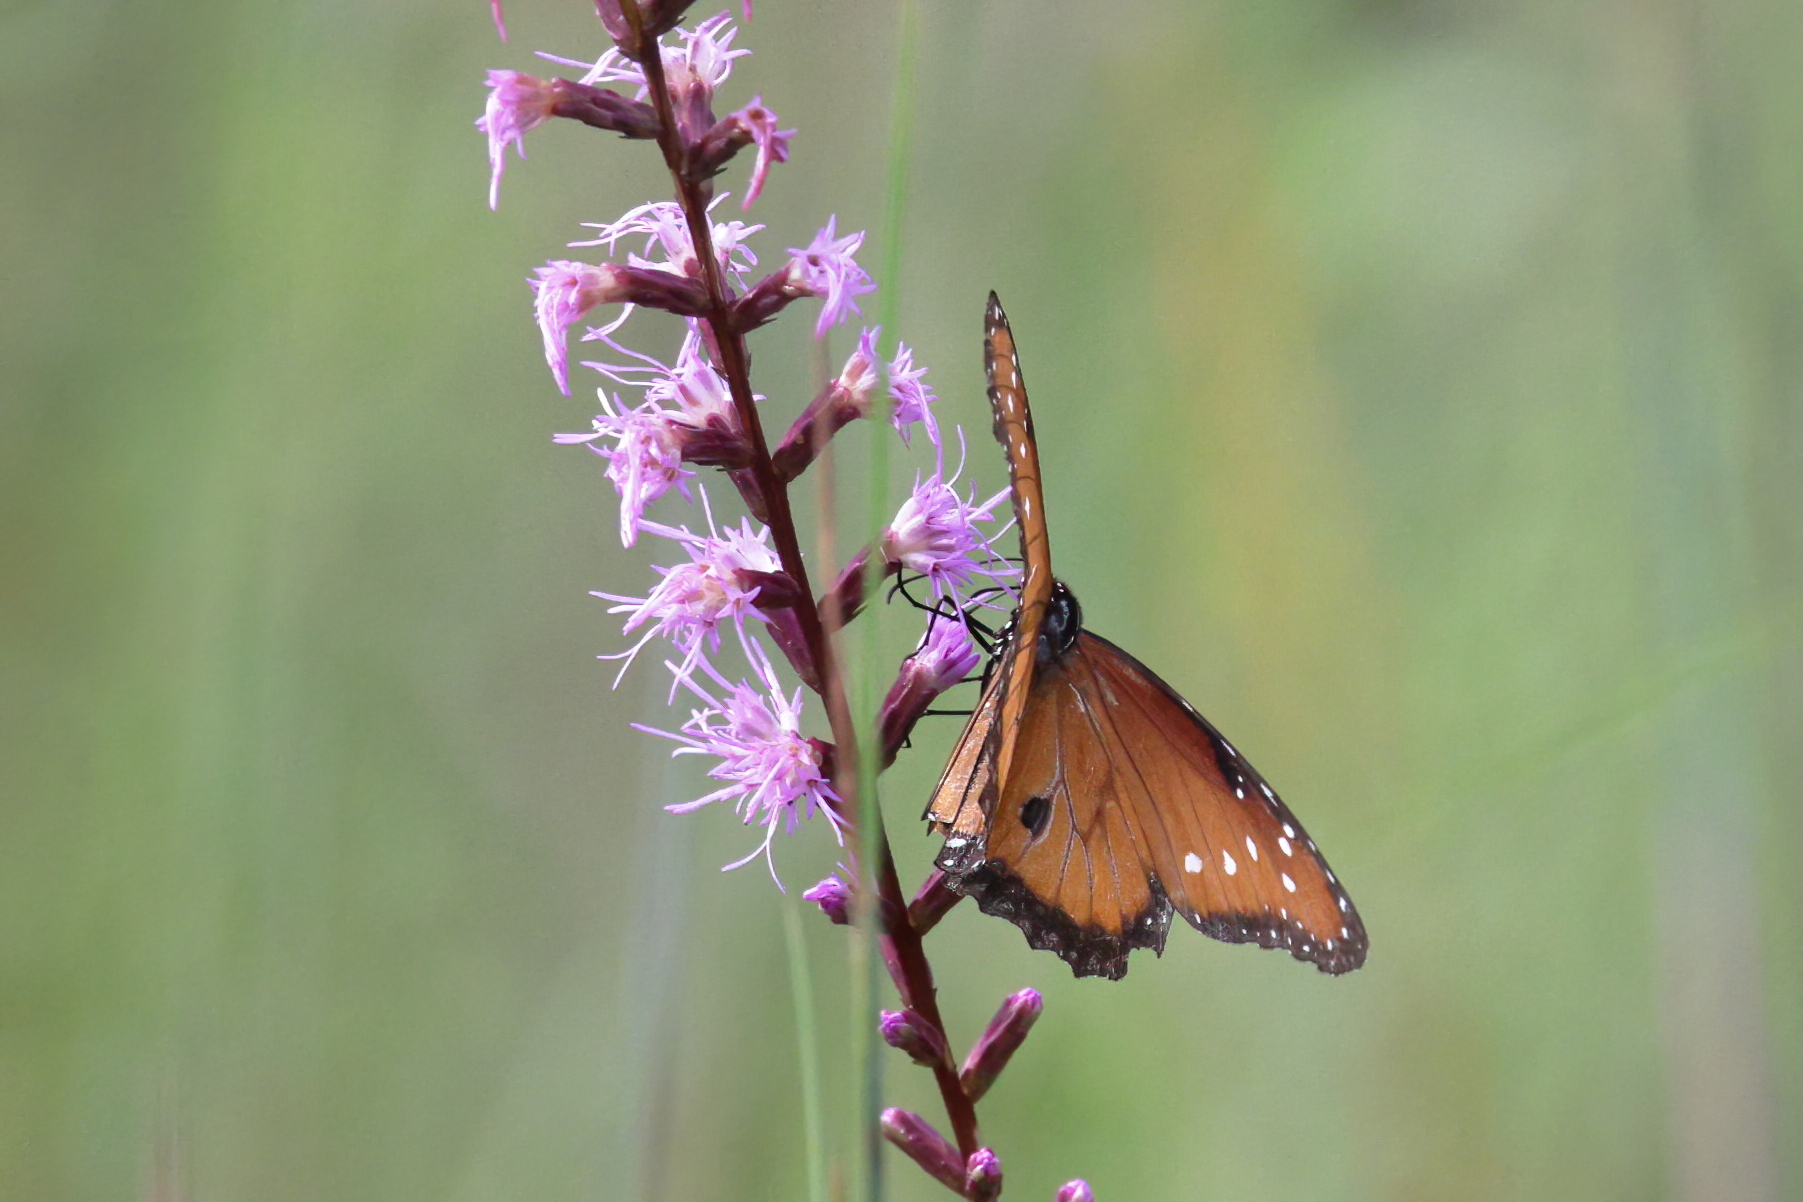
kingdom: Animalia
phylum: Arthropoda
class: Insecta
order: Lepidoptera
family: Nymphalidae
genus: Danaus
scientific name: Danaus gilippus
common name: Queen
